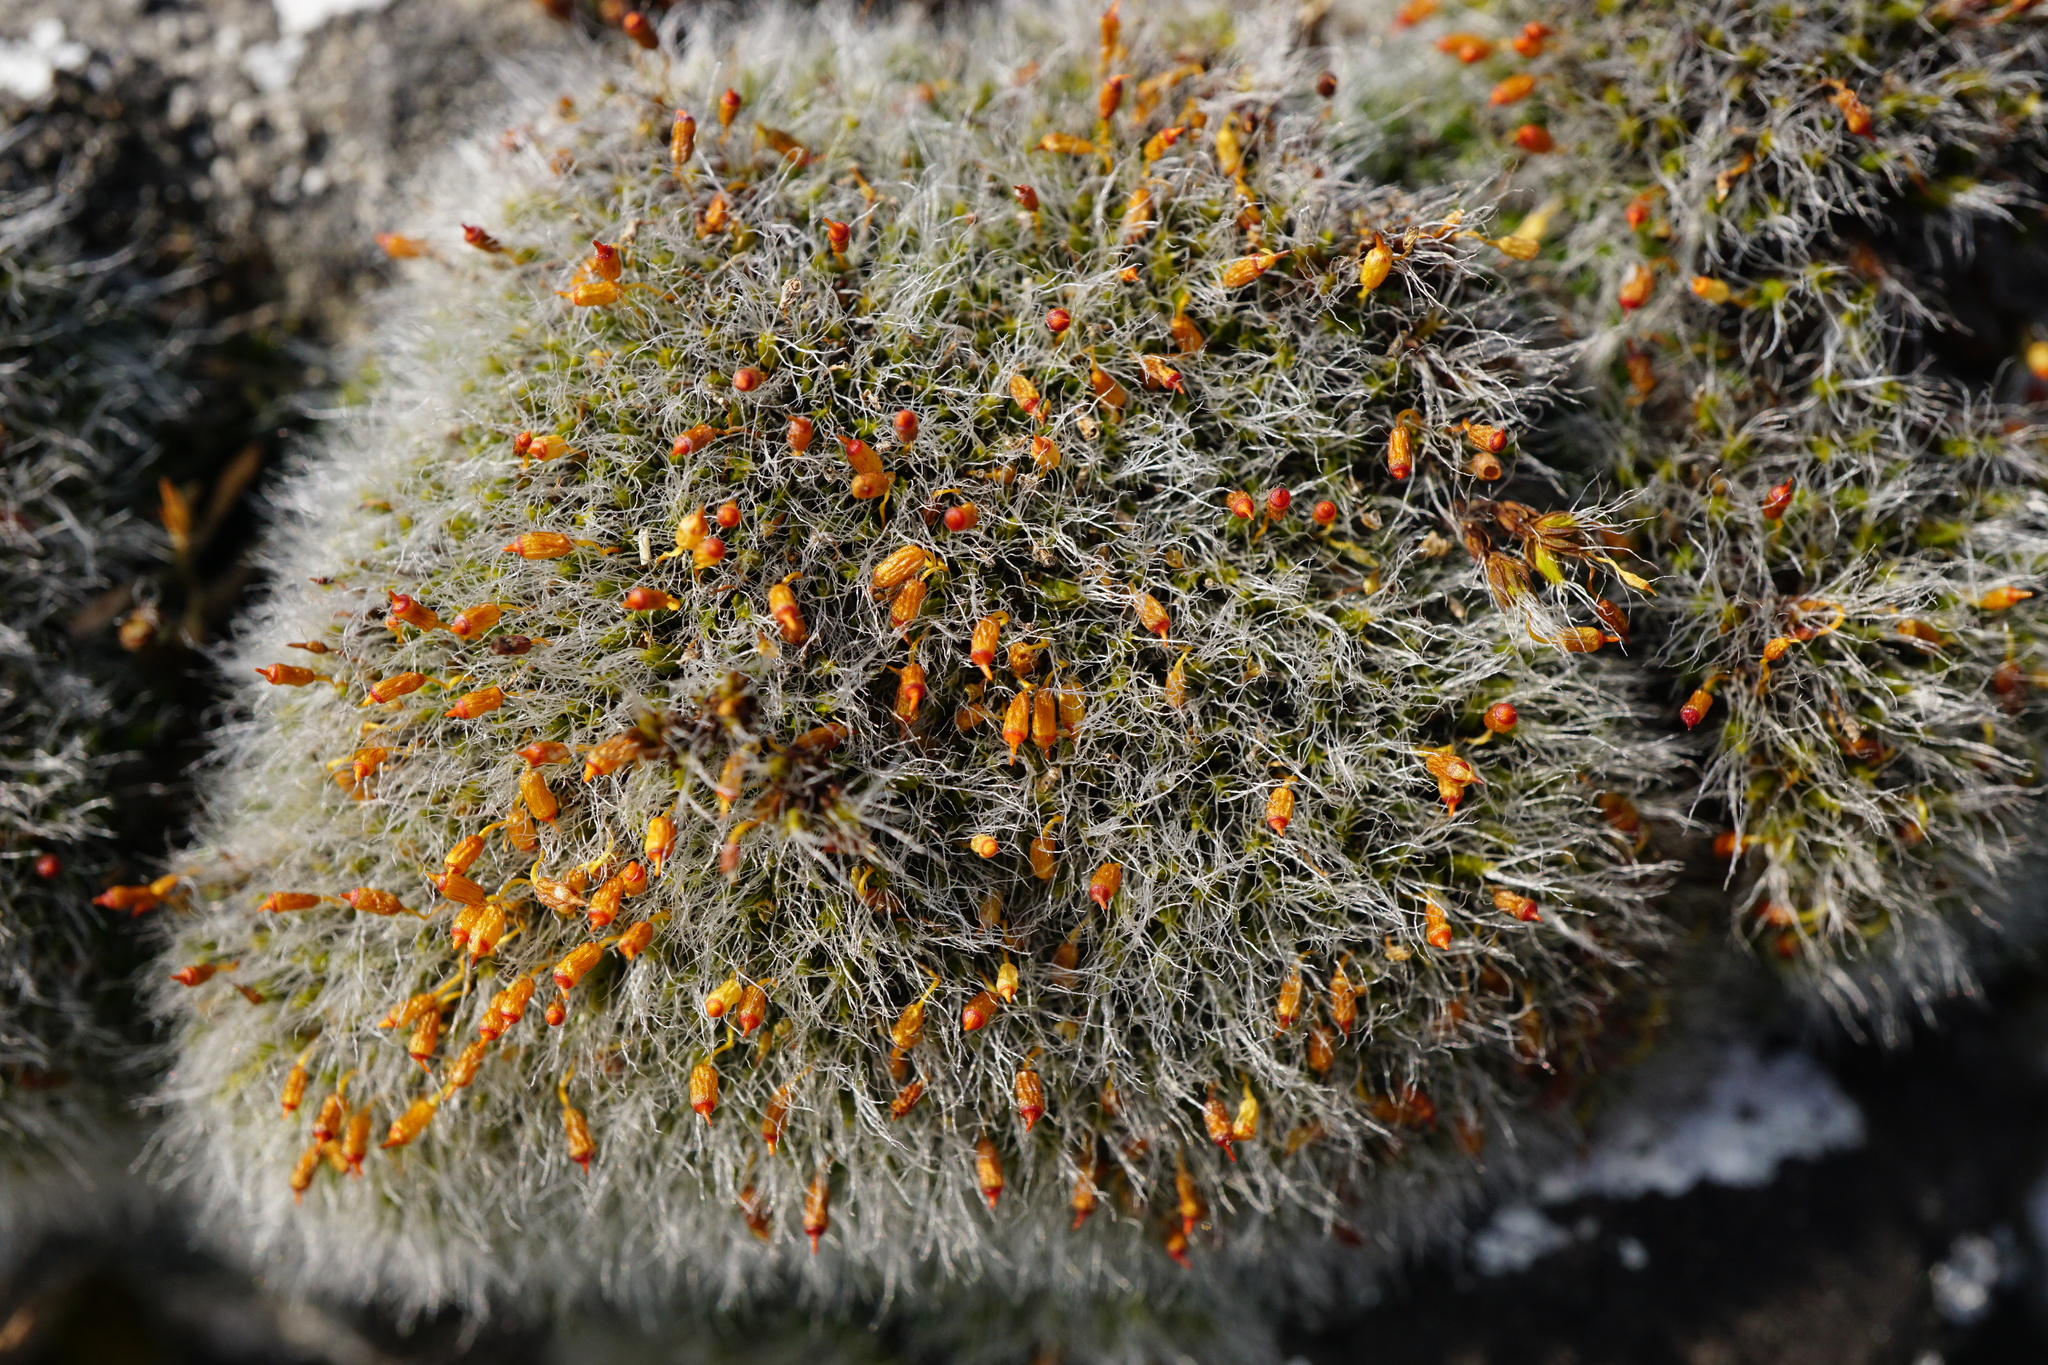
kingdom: Plantae
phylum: Bryophyta
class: Bryopsida
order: Grimmiales
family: Grimmiaceae
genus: Grimmia
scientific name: Grimmia pulvinata
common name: Grey-cushioned grimmia
